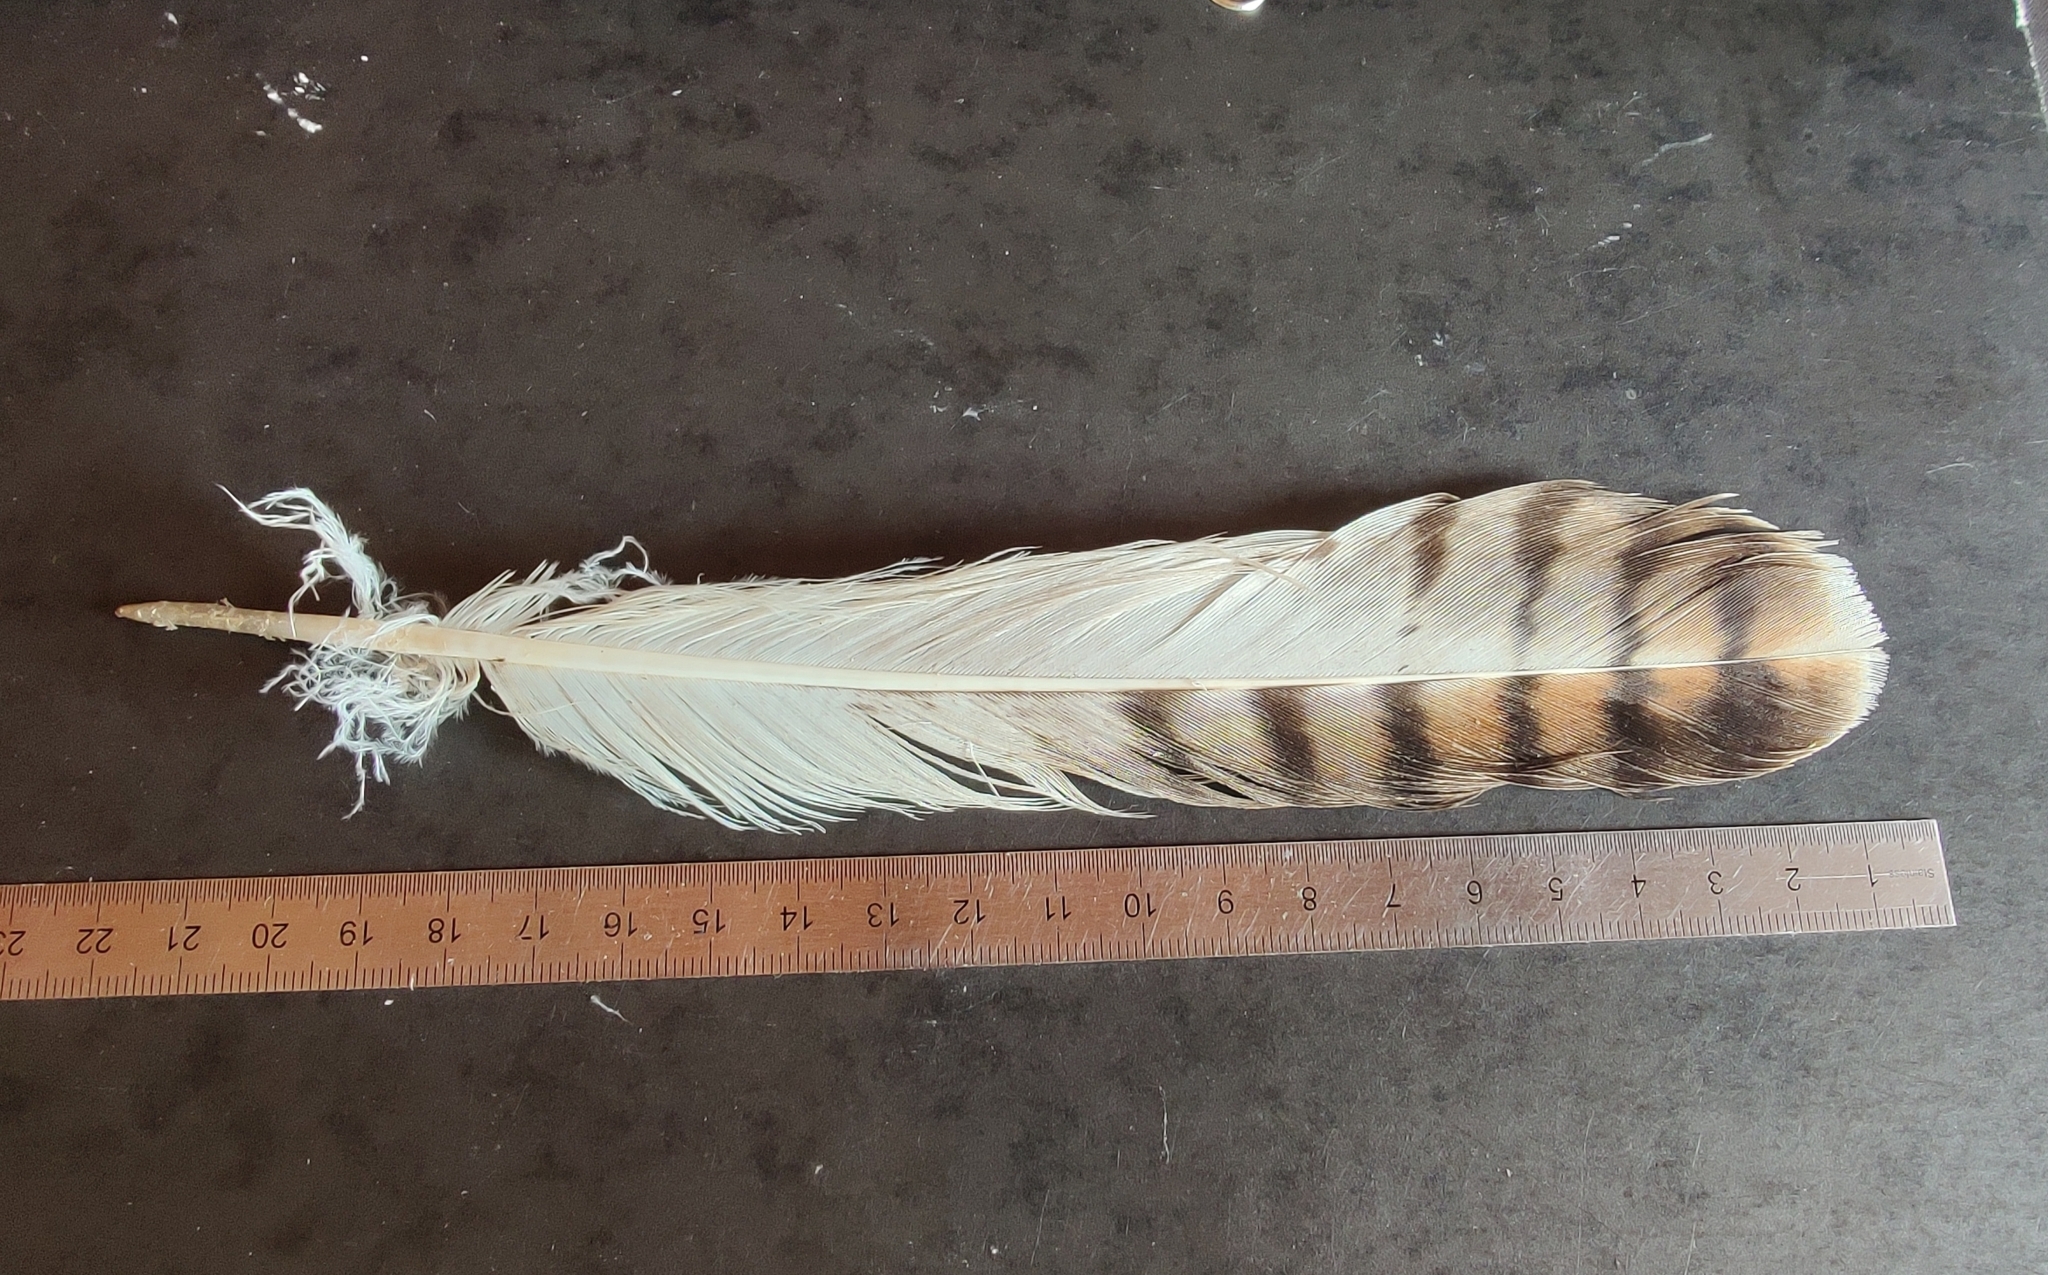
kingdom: Animalia
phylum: Chordata
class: Aves
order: Accipitriformes
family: Accipitridae
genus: Buteo
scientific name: Buteo buteo
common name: Common buzzard
